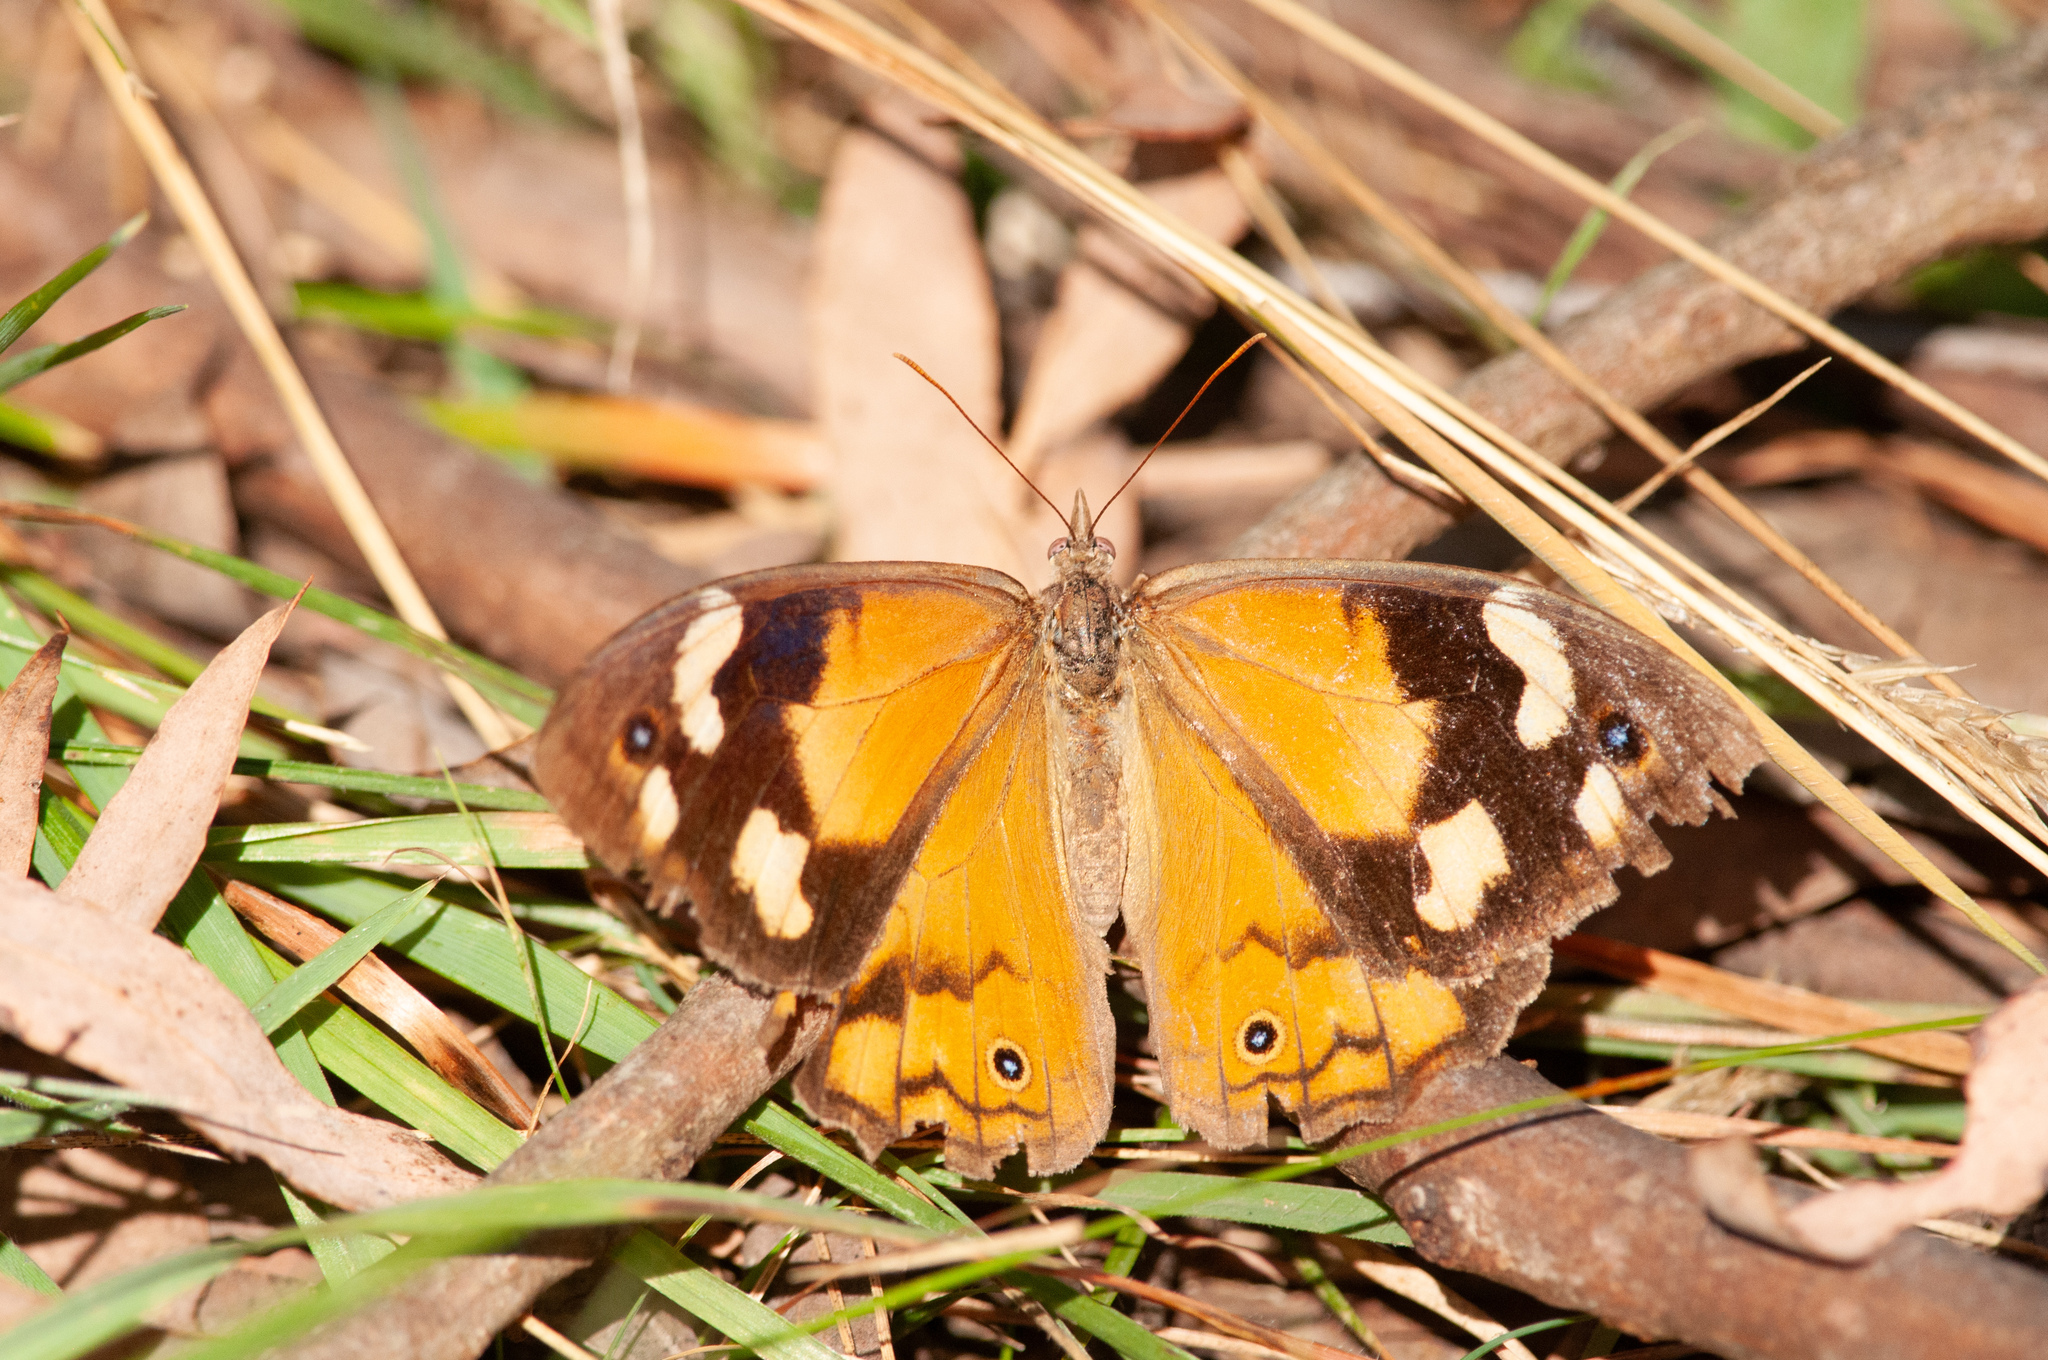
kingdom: Animalia
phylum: Arthropoda
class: Insecta
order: Lepidoptera
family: Nymphalidae
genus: Heteronympha
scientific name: Heteronympha merope
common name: Common brown
